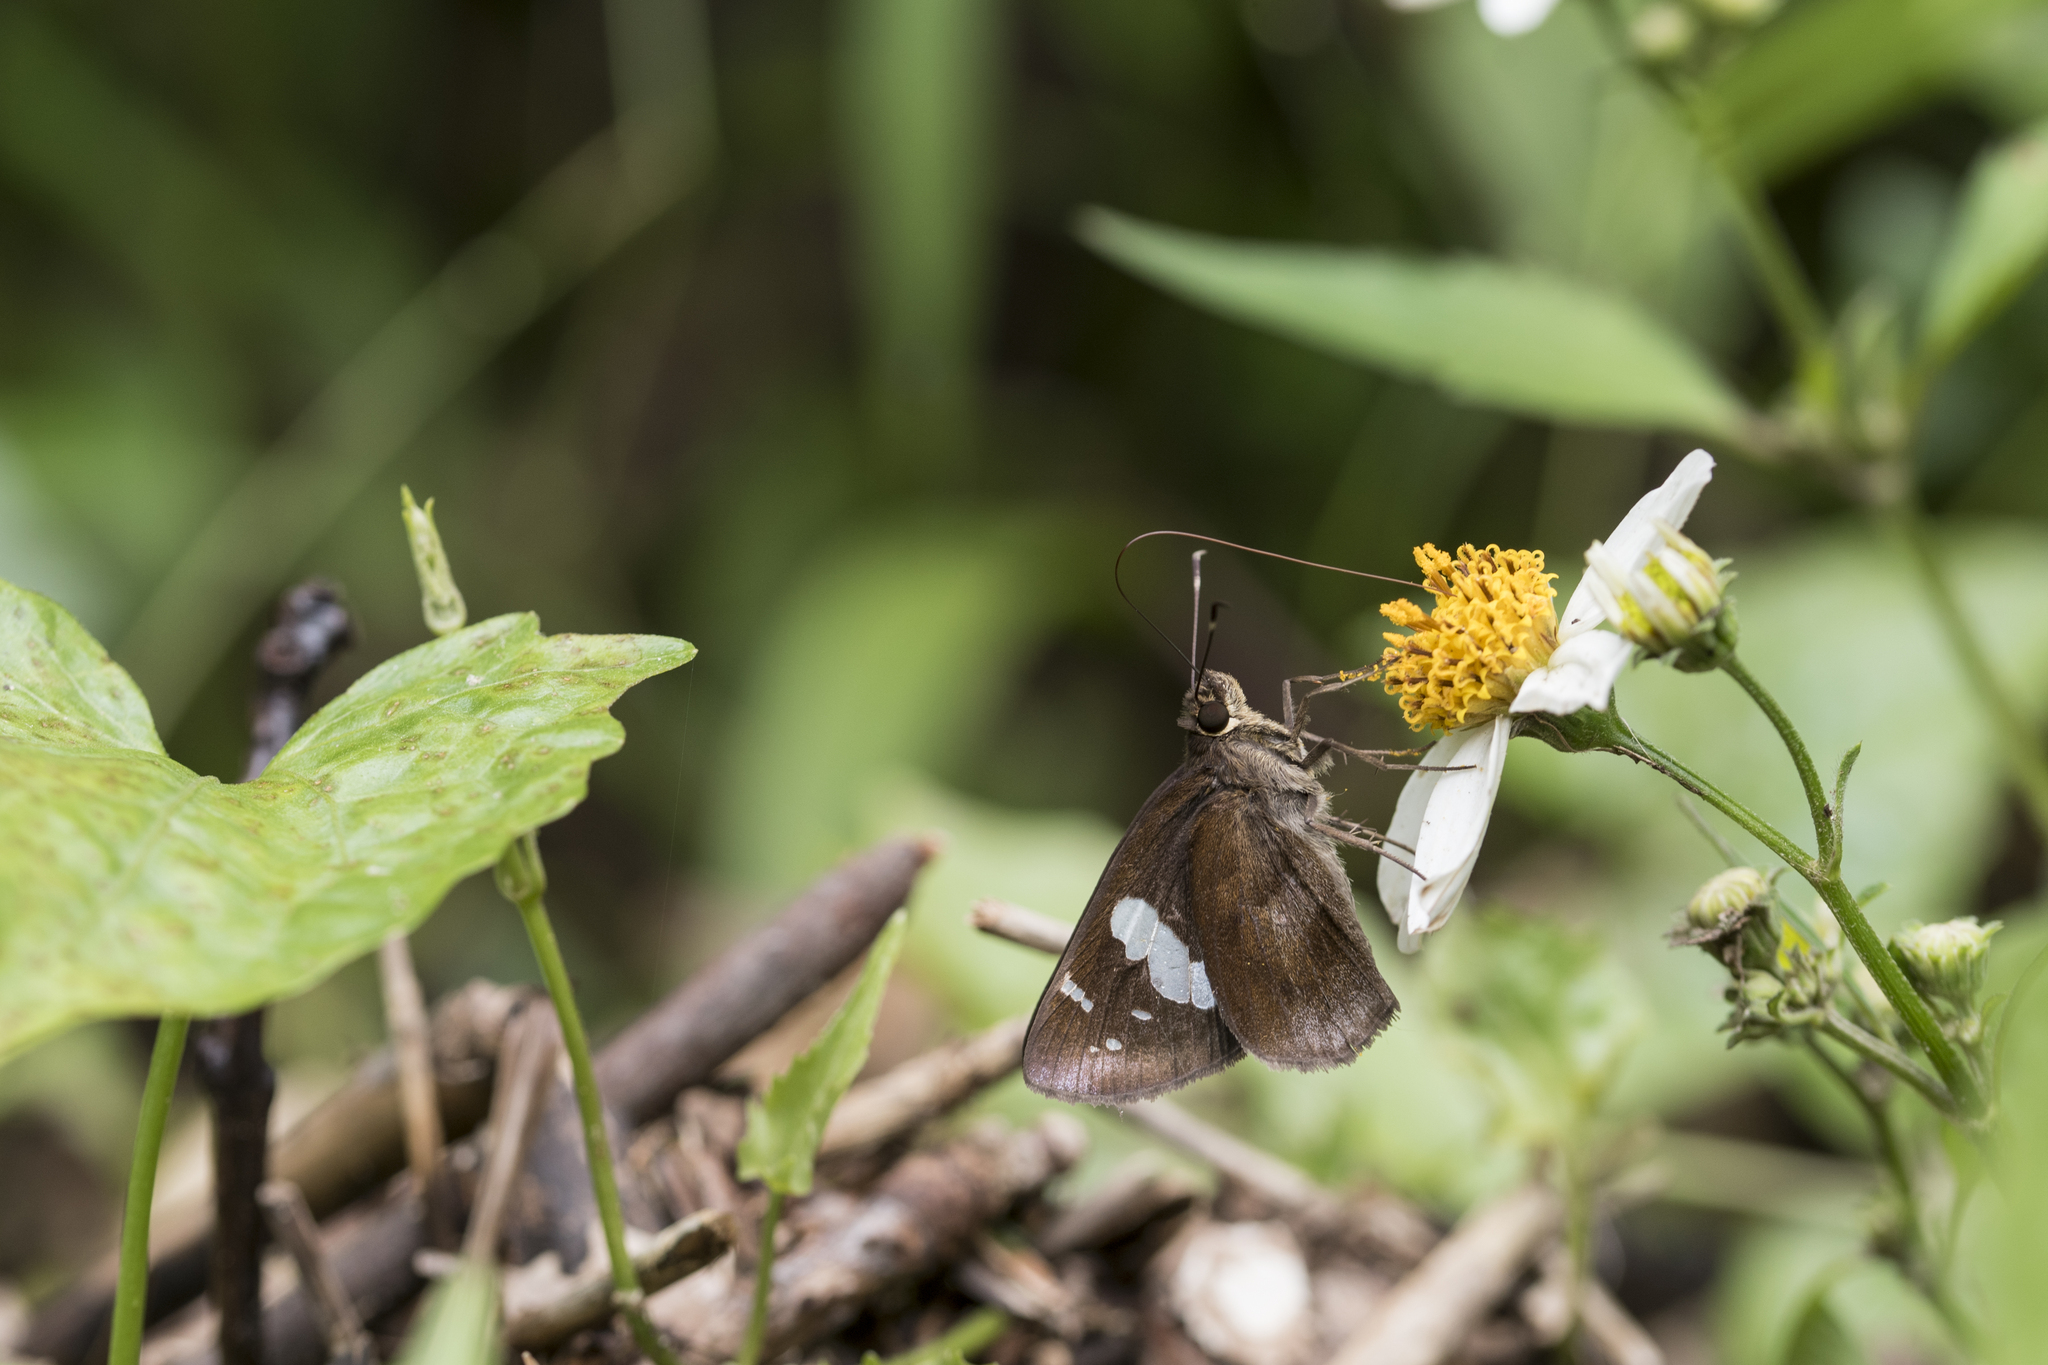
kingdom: Animalia
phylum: Arthropoda
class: Insecta
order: Lepidoptera
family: Hesperiidae
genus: Notocrypta
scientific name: Notocrypta curvifascia
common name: Restricted demon
